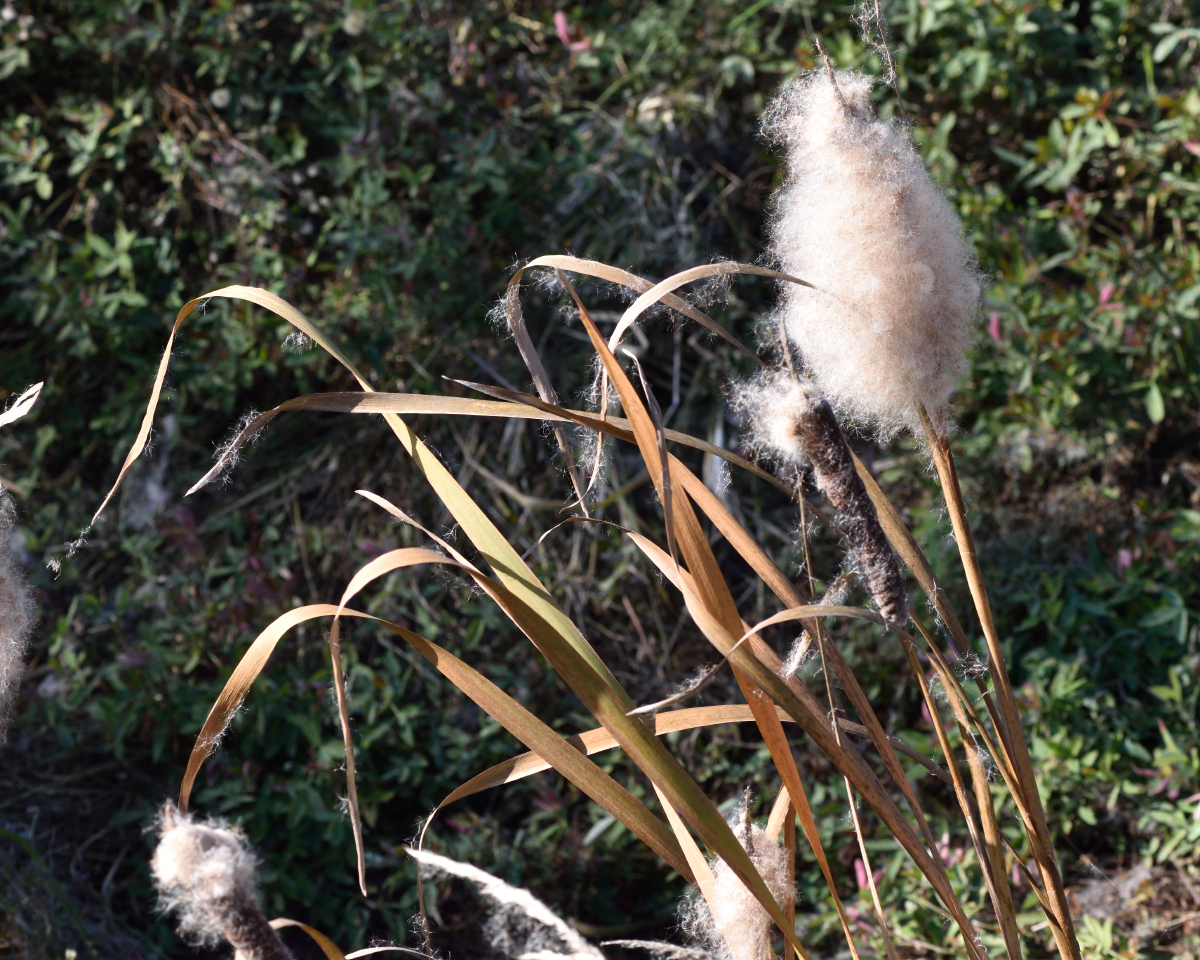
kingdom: Plantae
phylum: Tracheophyta
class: Liliopsida
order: Poales
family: Typhaceae
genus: Typha
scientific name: Typha latifolia
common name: Broadleaf cattail
